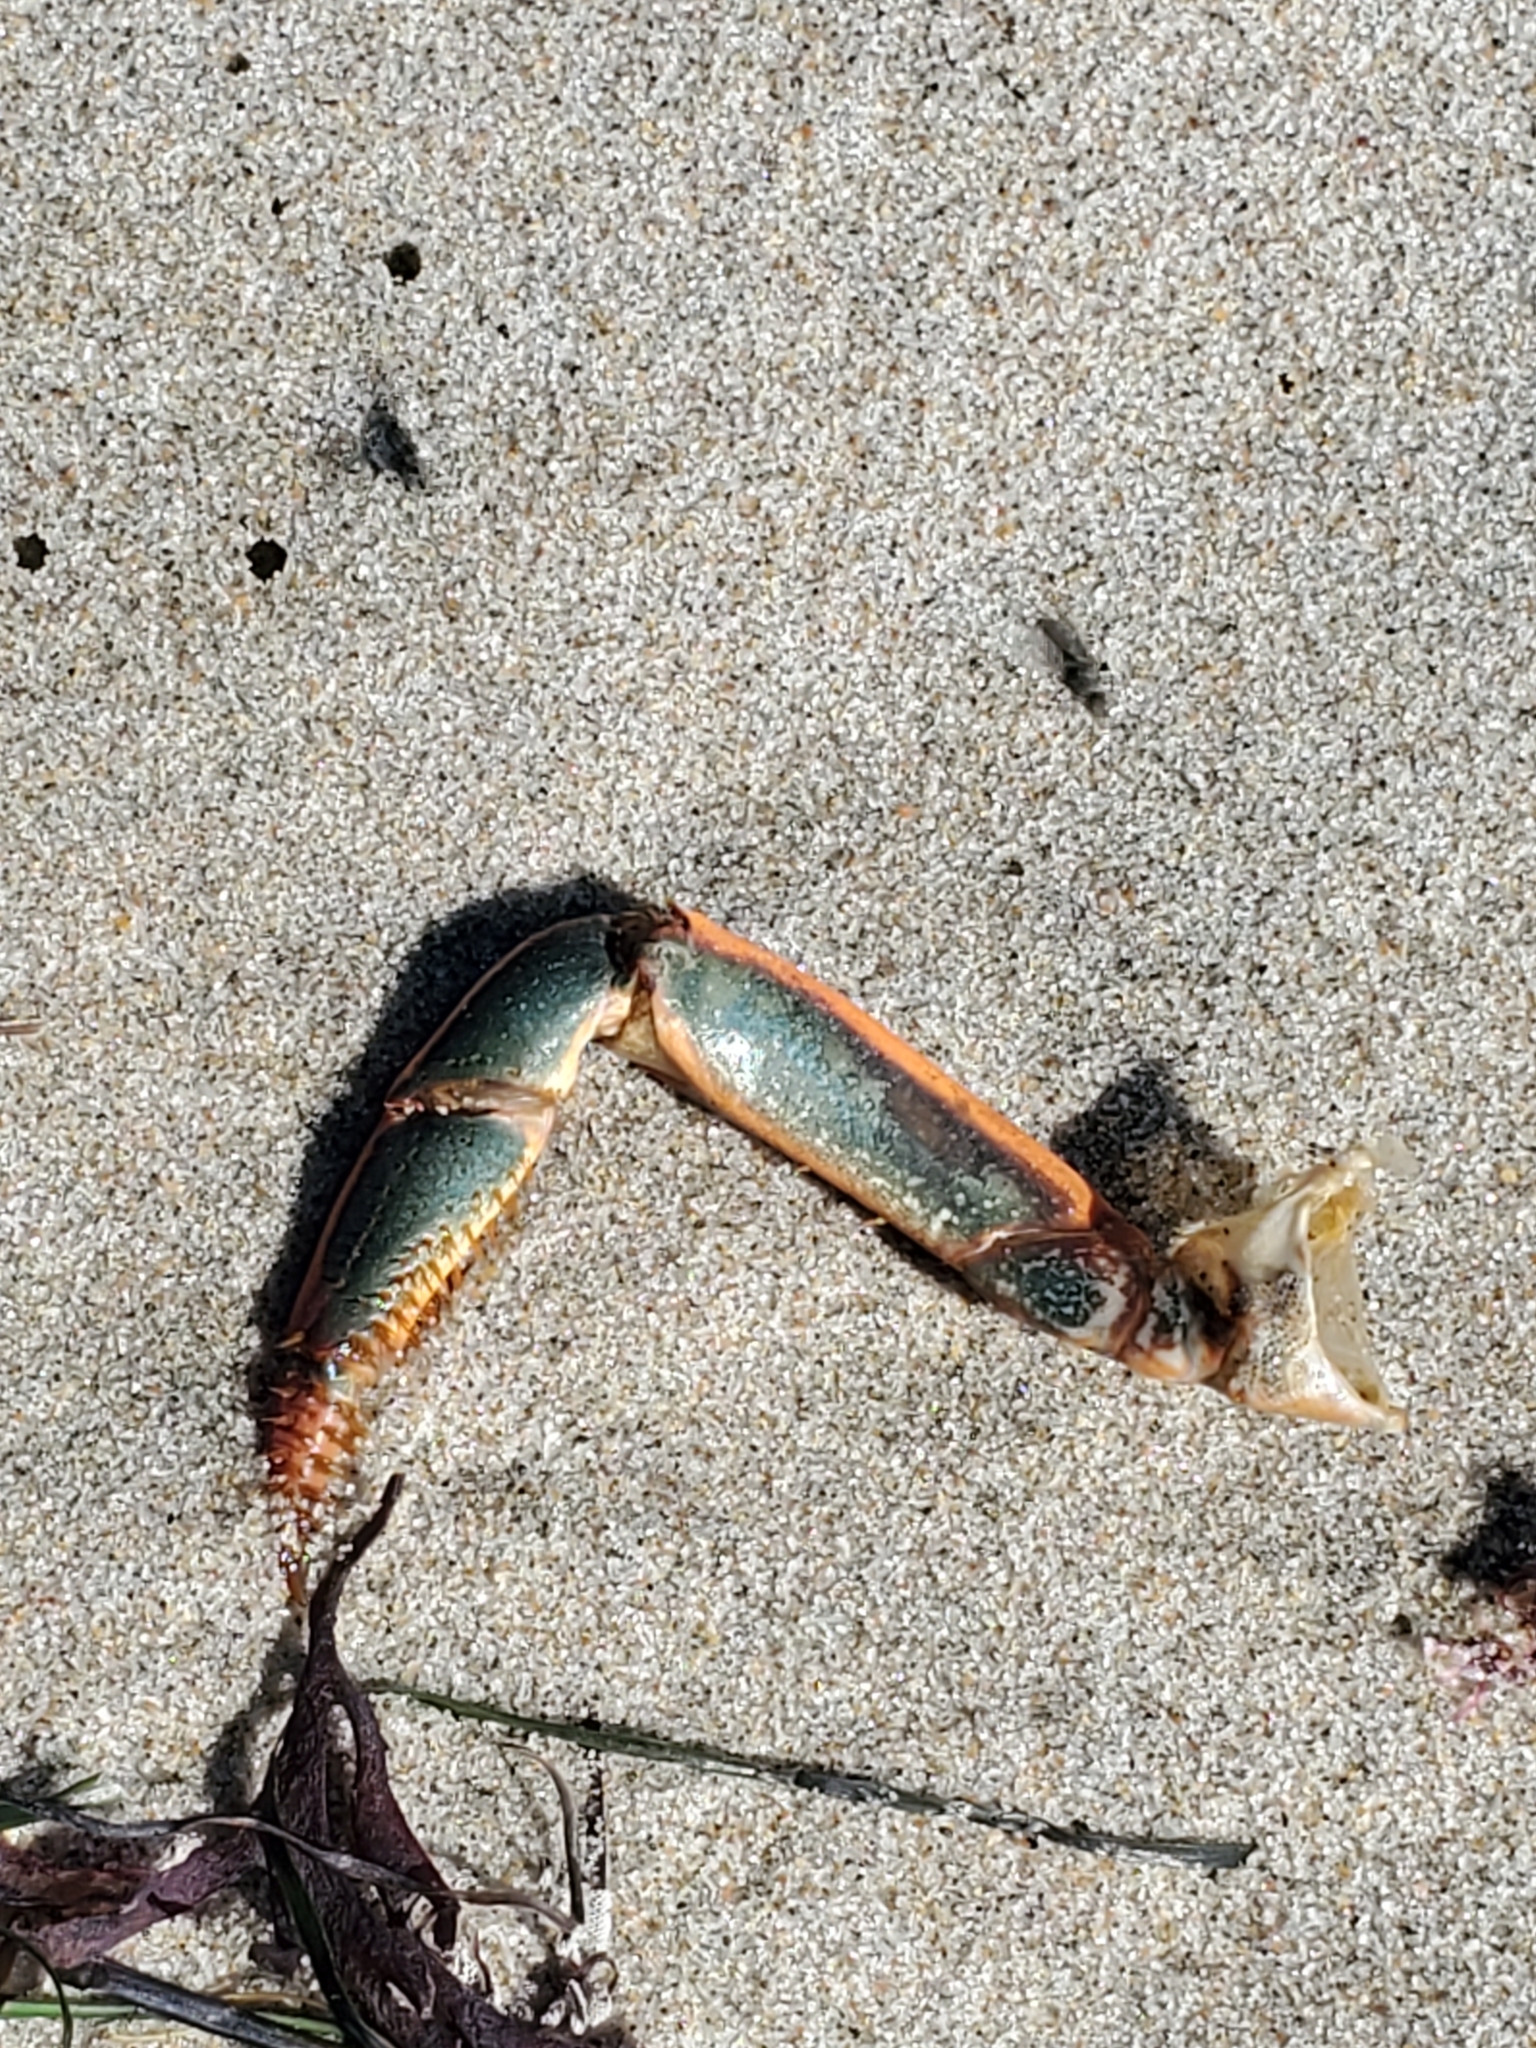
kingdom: Animalia
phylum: Arthropoda
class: Malacostraca
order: Decapoda
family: Palinuridae
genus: Panulirus
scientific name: Panulirus interruptus
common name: California spiny lobster
